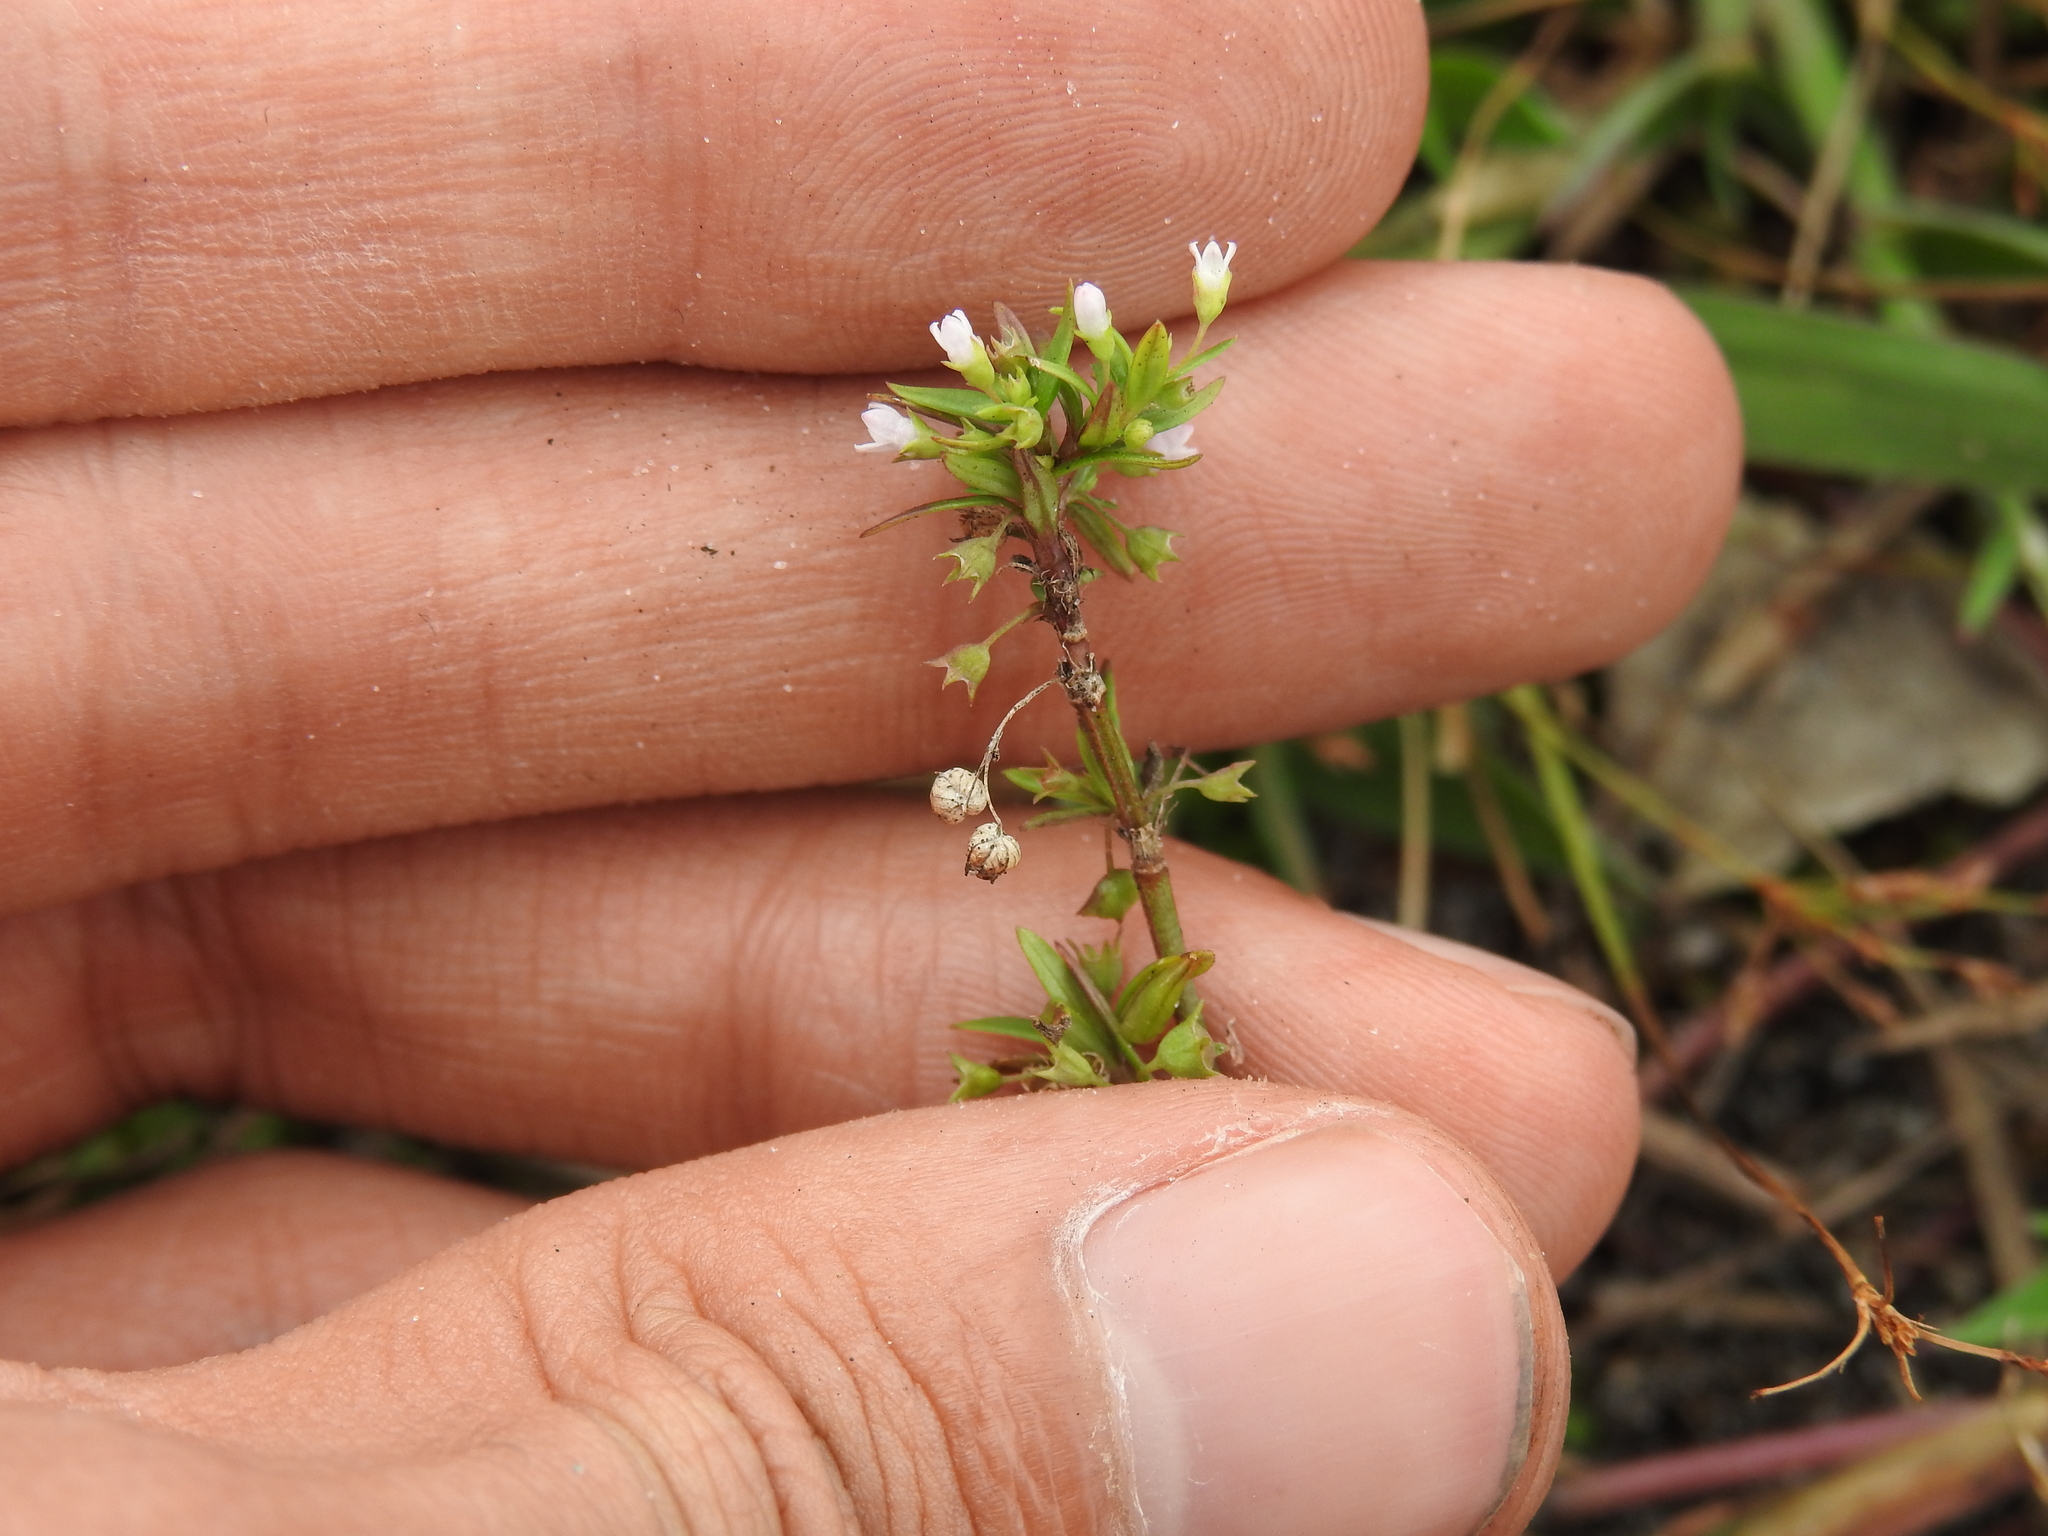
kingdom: Plantae
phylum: Tracheophyta
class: Magnoliopsida
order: Gentianales
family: Rubiaceae
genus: Oldenlandia
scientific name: Oldenlandia corymbosa
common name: Flat-top mille graines
